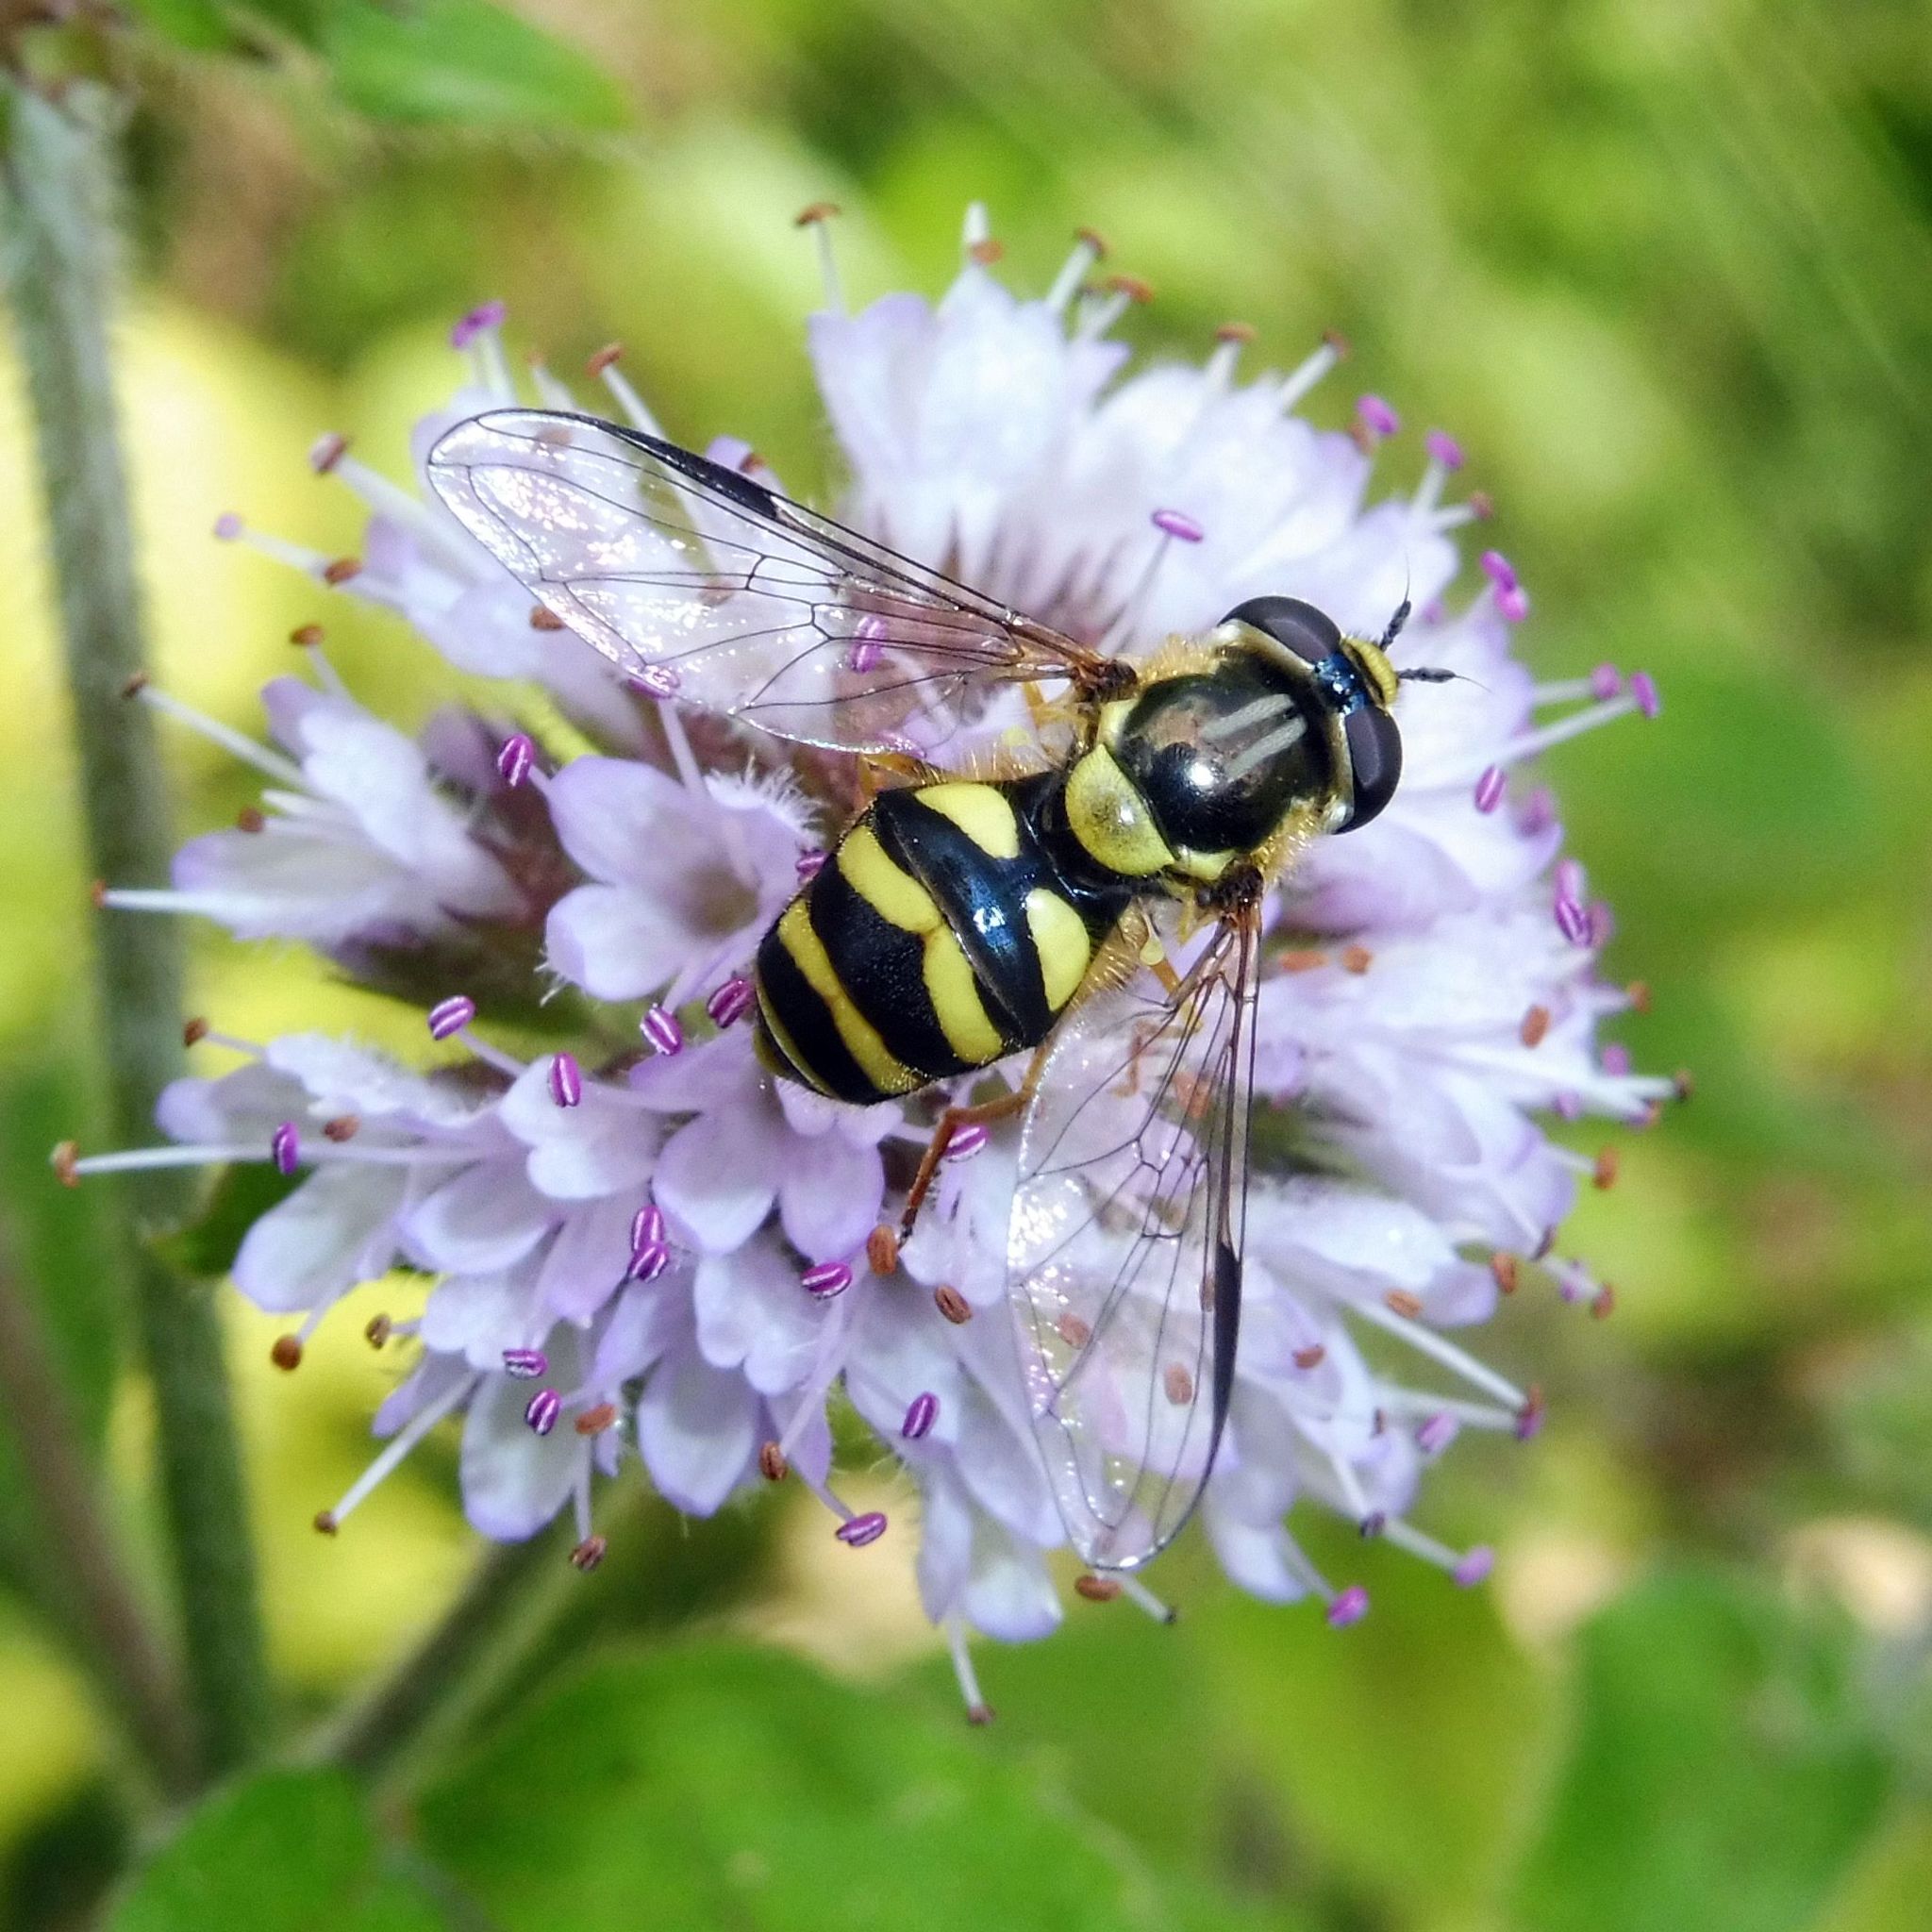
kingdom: Animalia
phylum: Arthropoda
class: Insecta
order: Diptera
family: Syrphidae
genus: Dasysyrphus
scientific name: Dasysyrphus albostriatus
